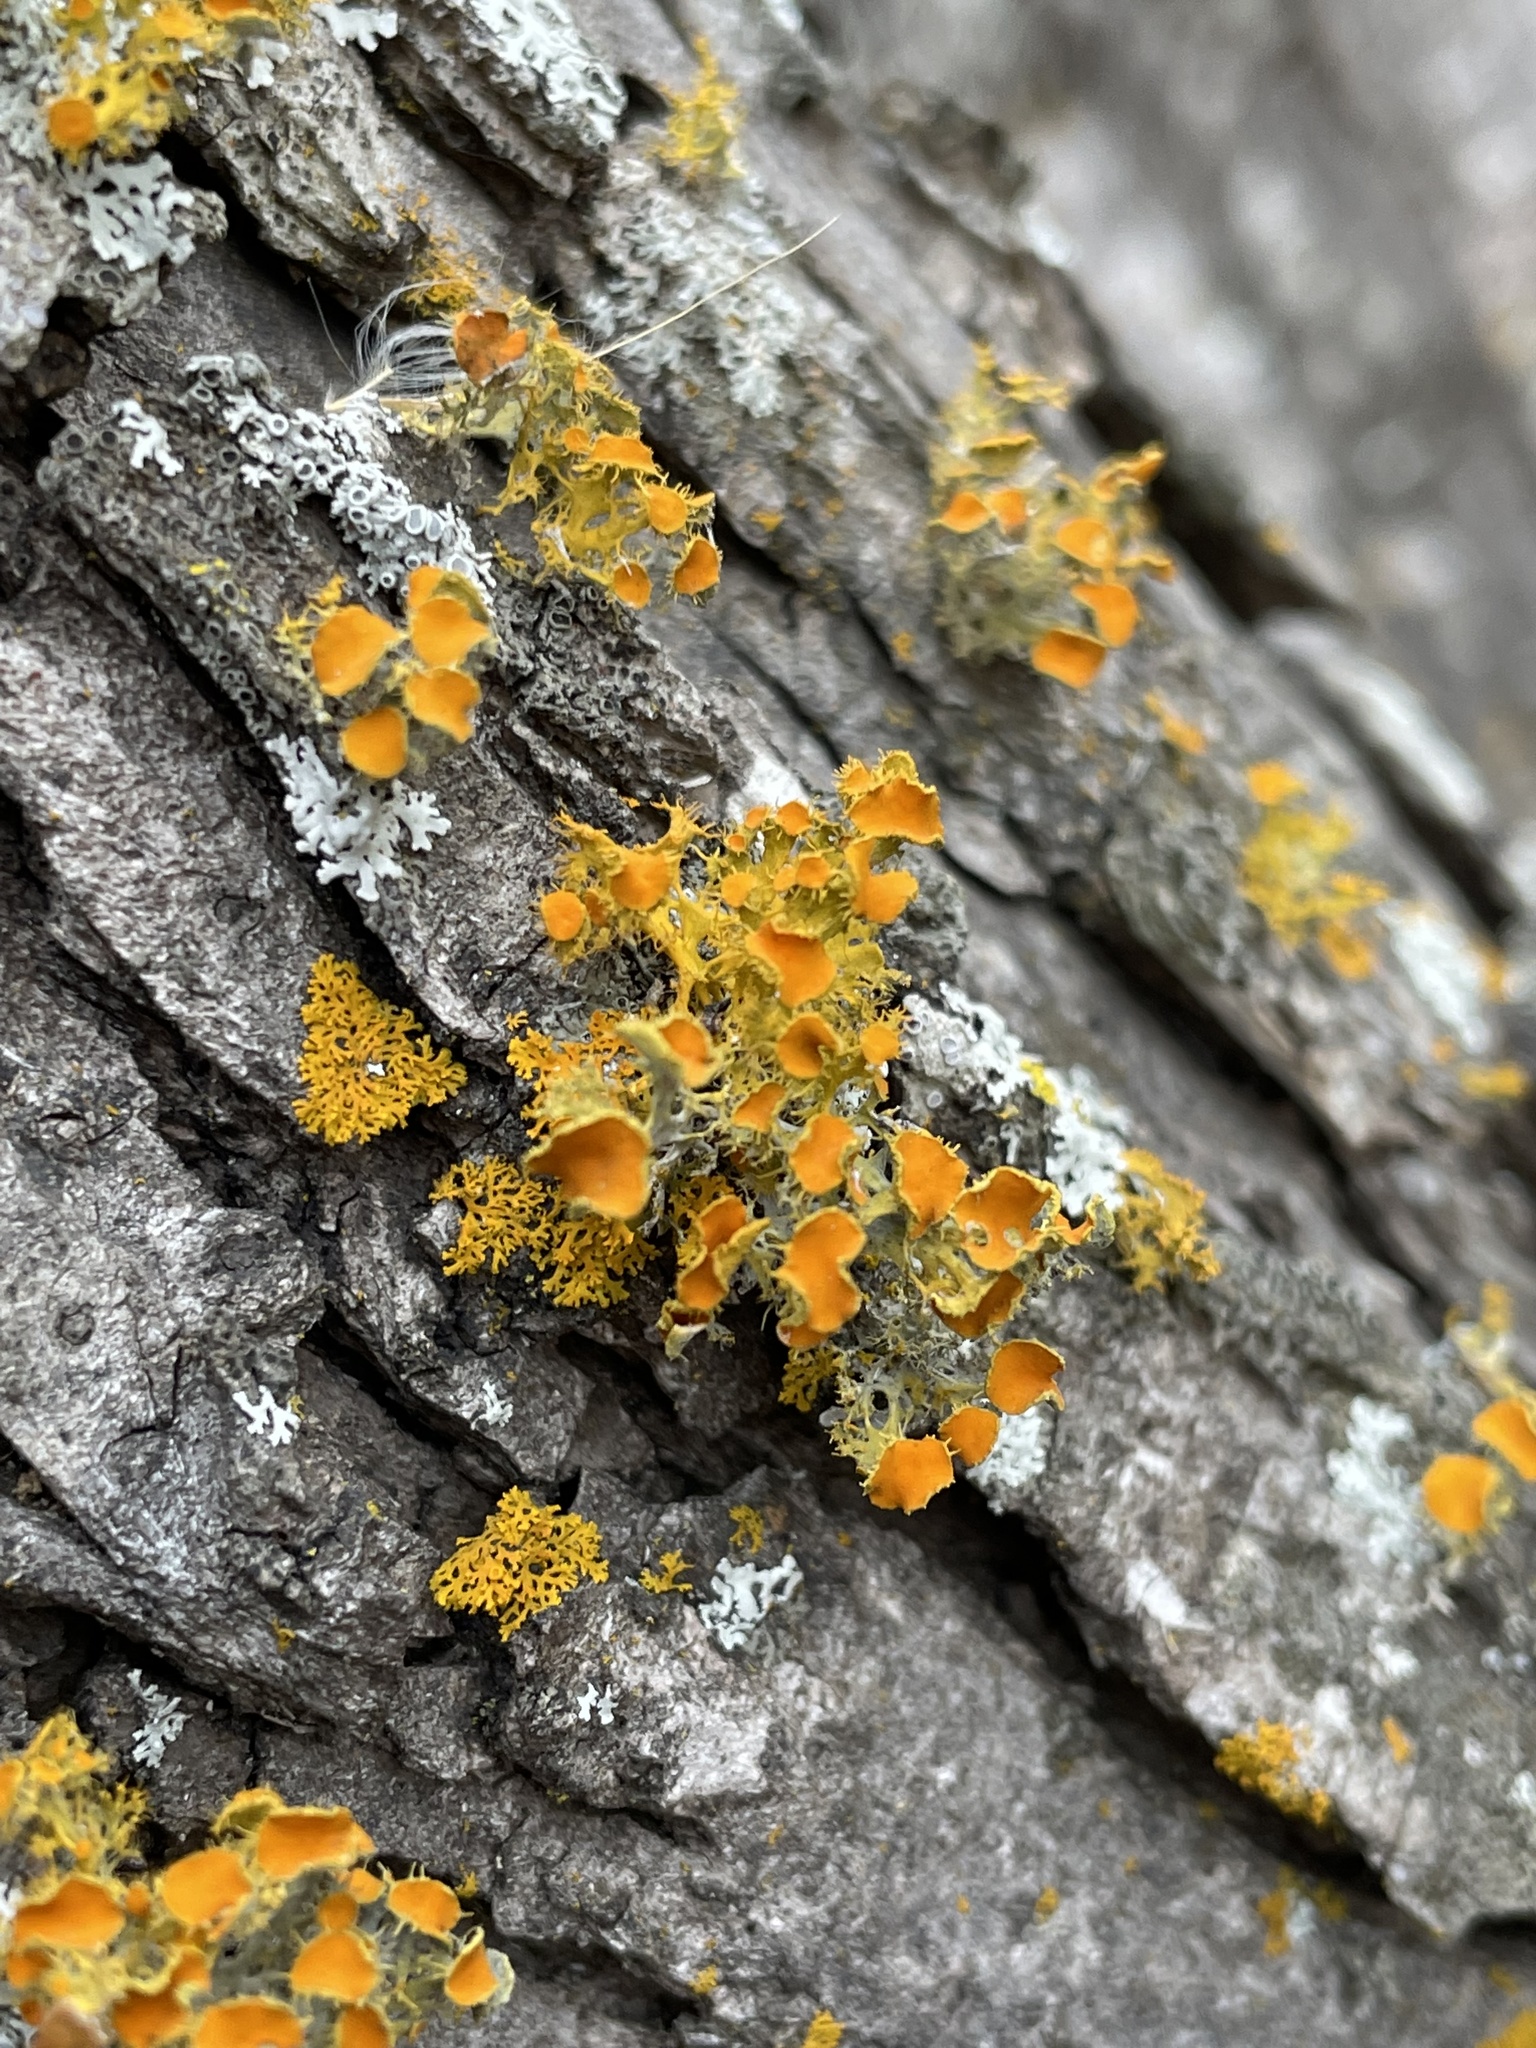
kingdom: Fungi
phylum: Ascomycota
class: Lecanoromycetes
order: Teloschistales
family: Teloschistaceae
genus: Niorma
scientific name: Niorma chrysophthalma
